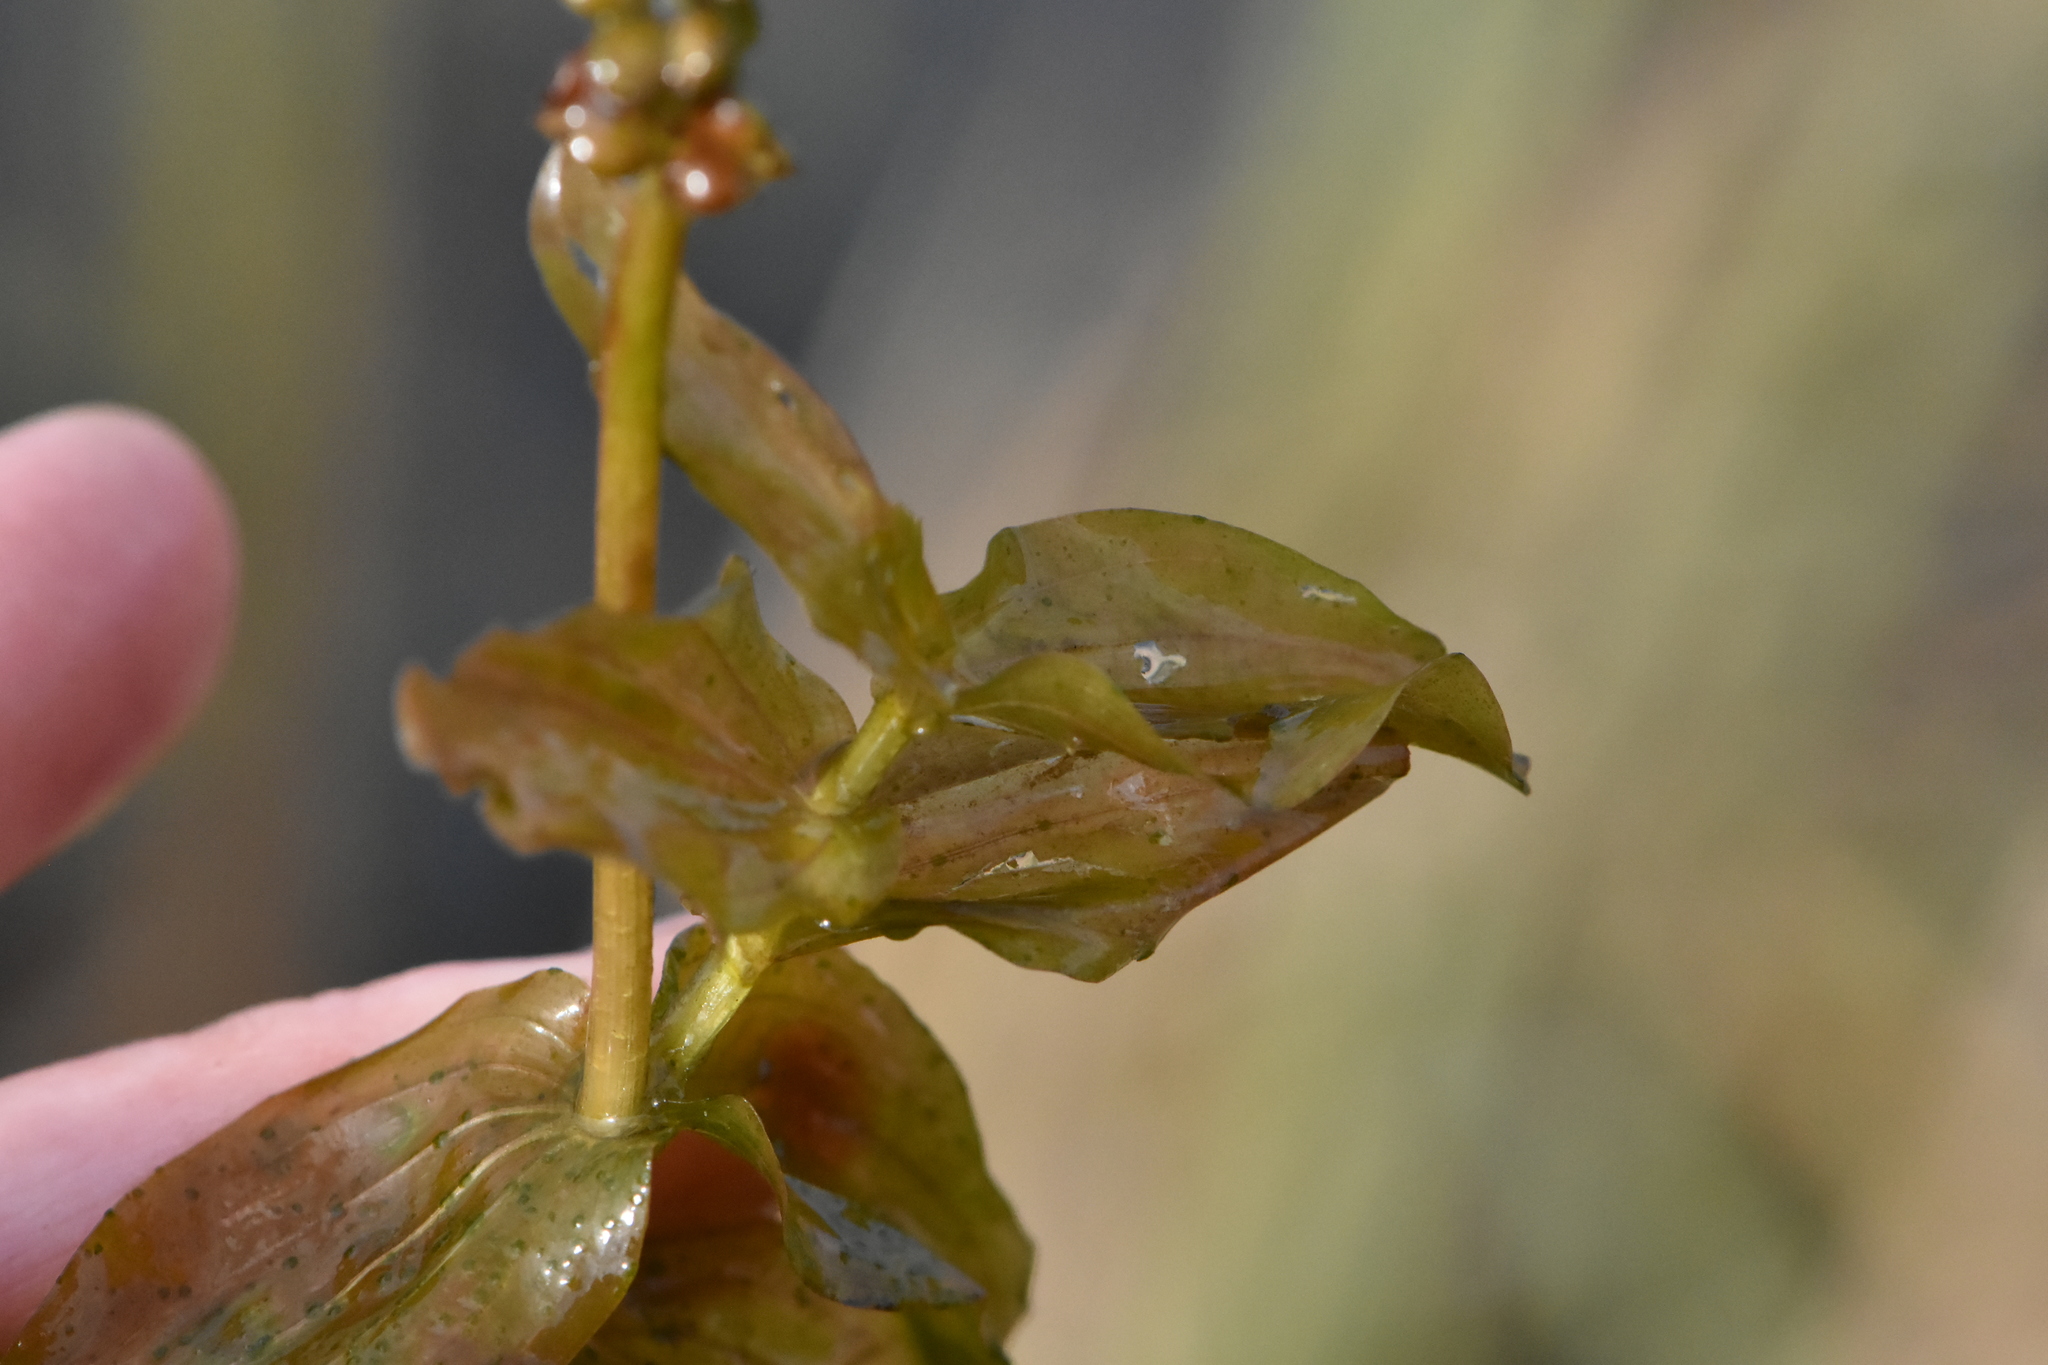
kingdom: Plantae
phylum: Tracheophyta
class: Liliopsida
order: Alismatales
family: Potamogetonaceae
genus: Potamogeton
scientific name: Potamogeton perfoliatus
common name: Perfoliate pondweed
